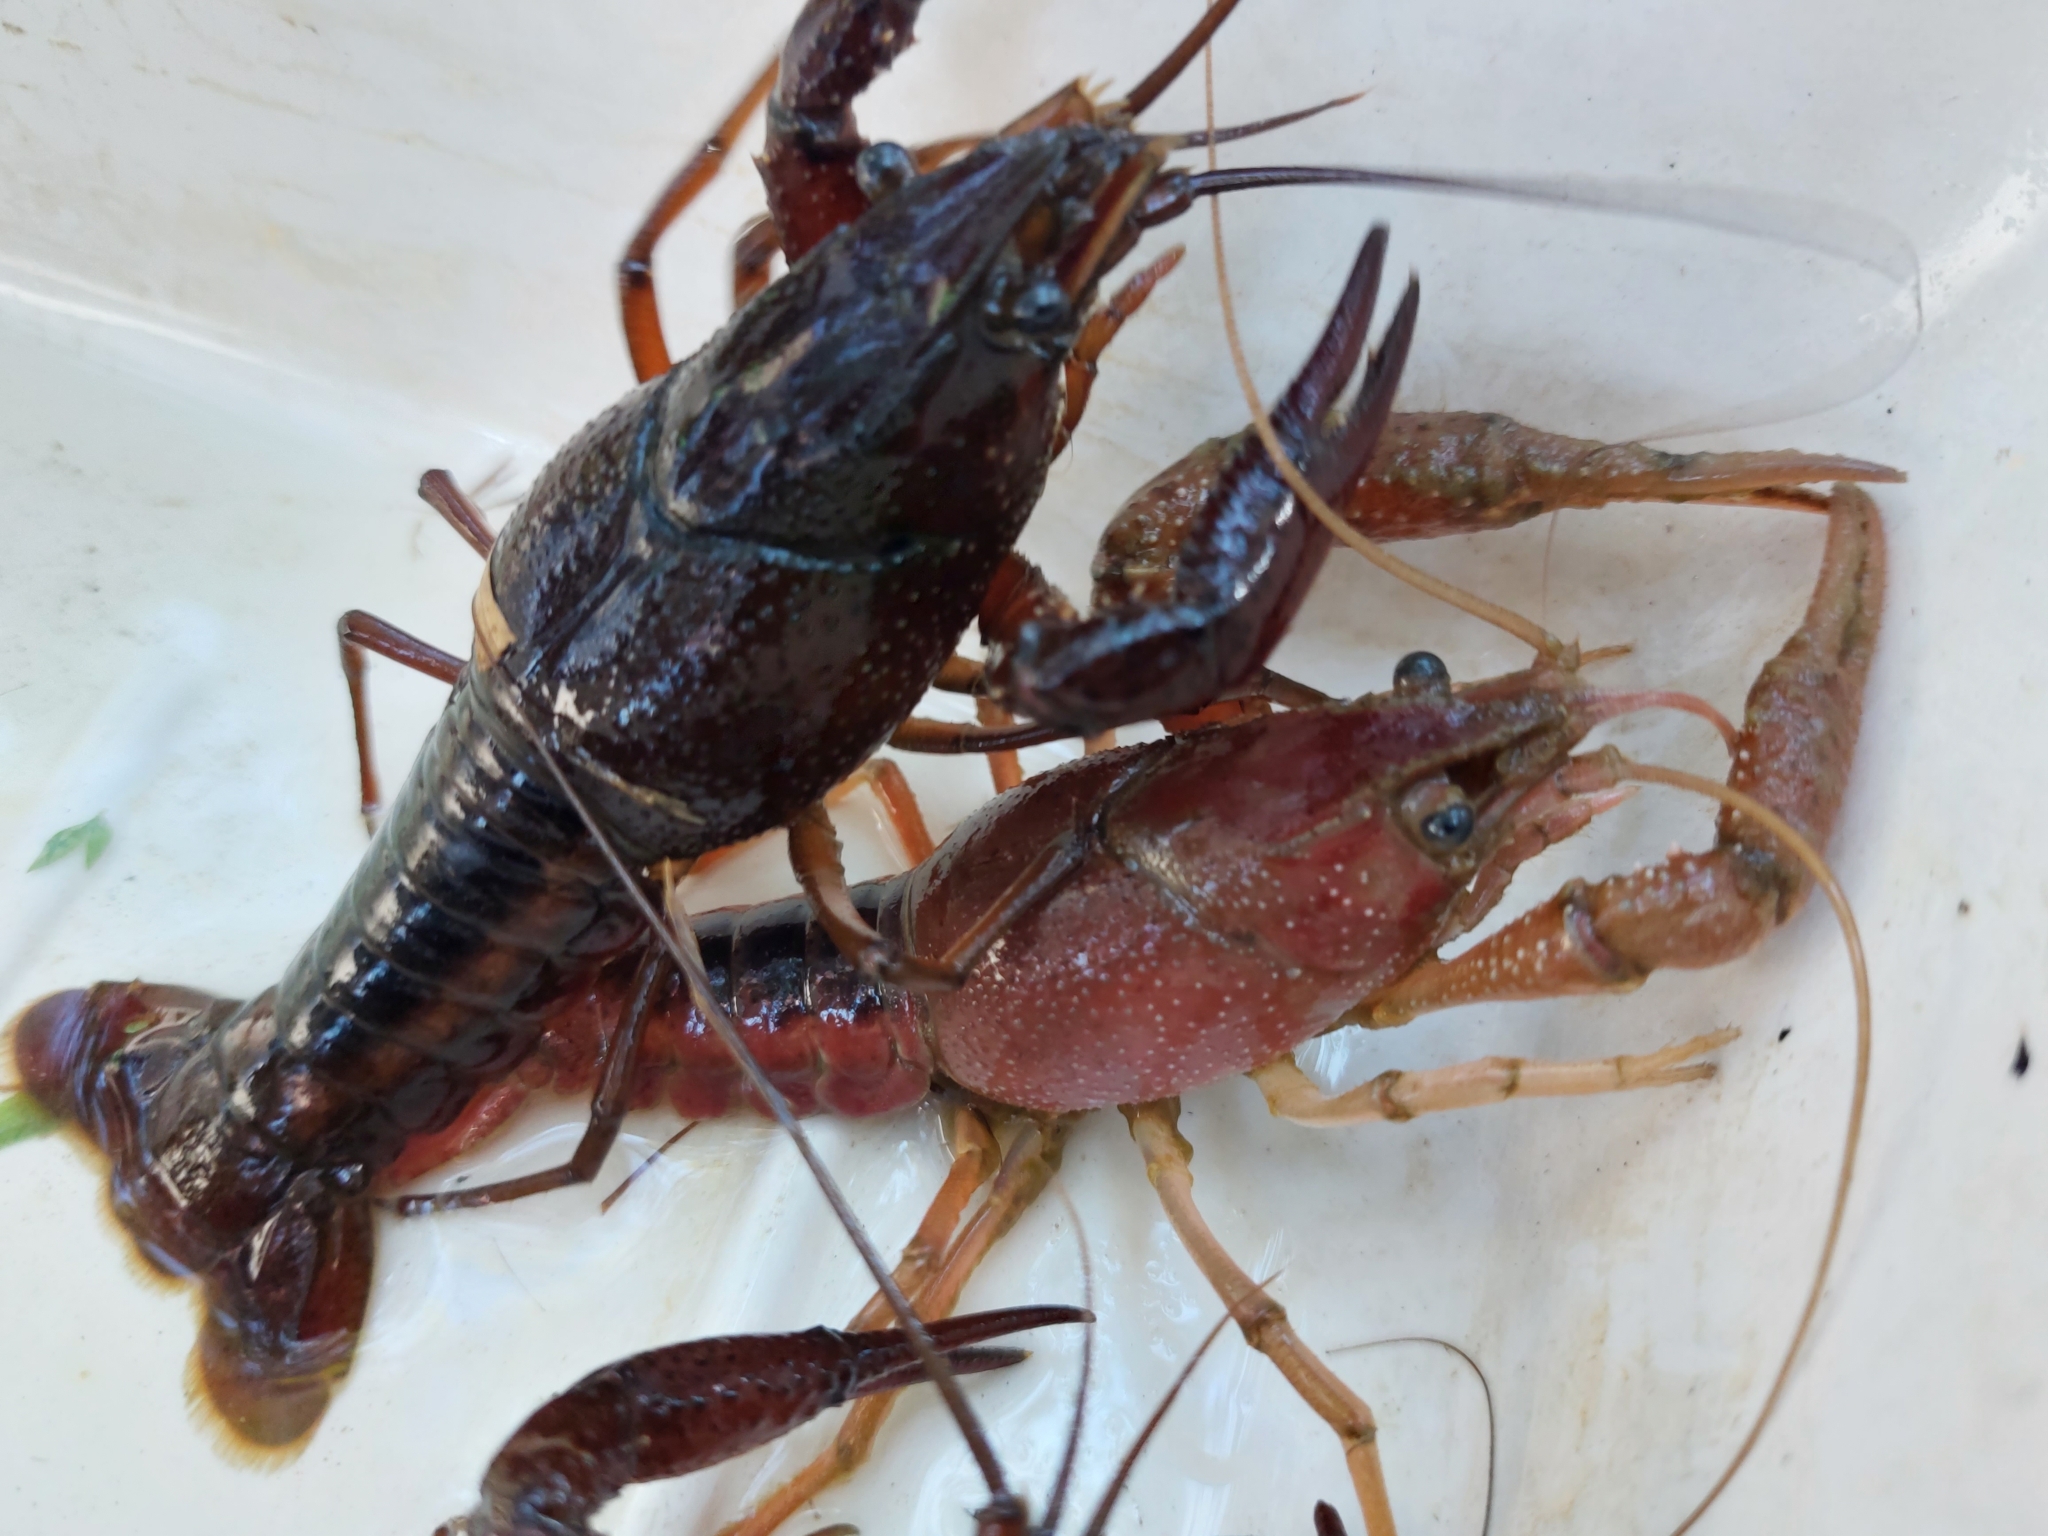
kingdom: Animalia
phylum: Arthropoda
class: Malacostraca
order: Decapoda
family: Cambaridae
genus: Procambarus
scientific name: Procambarus acutus
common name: White river crayfish
